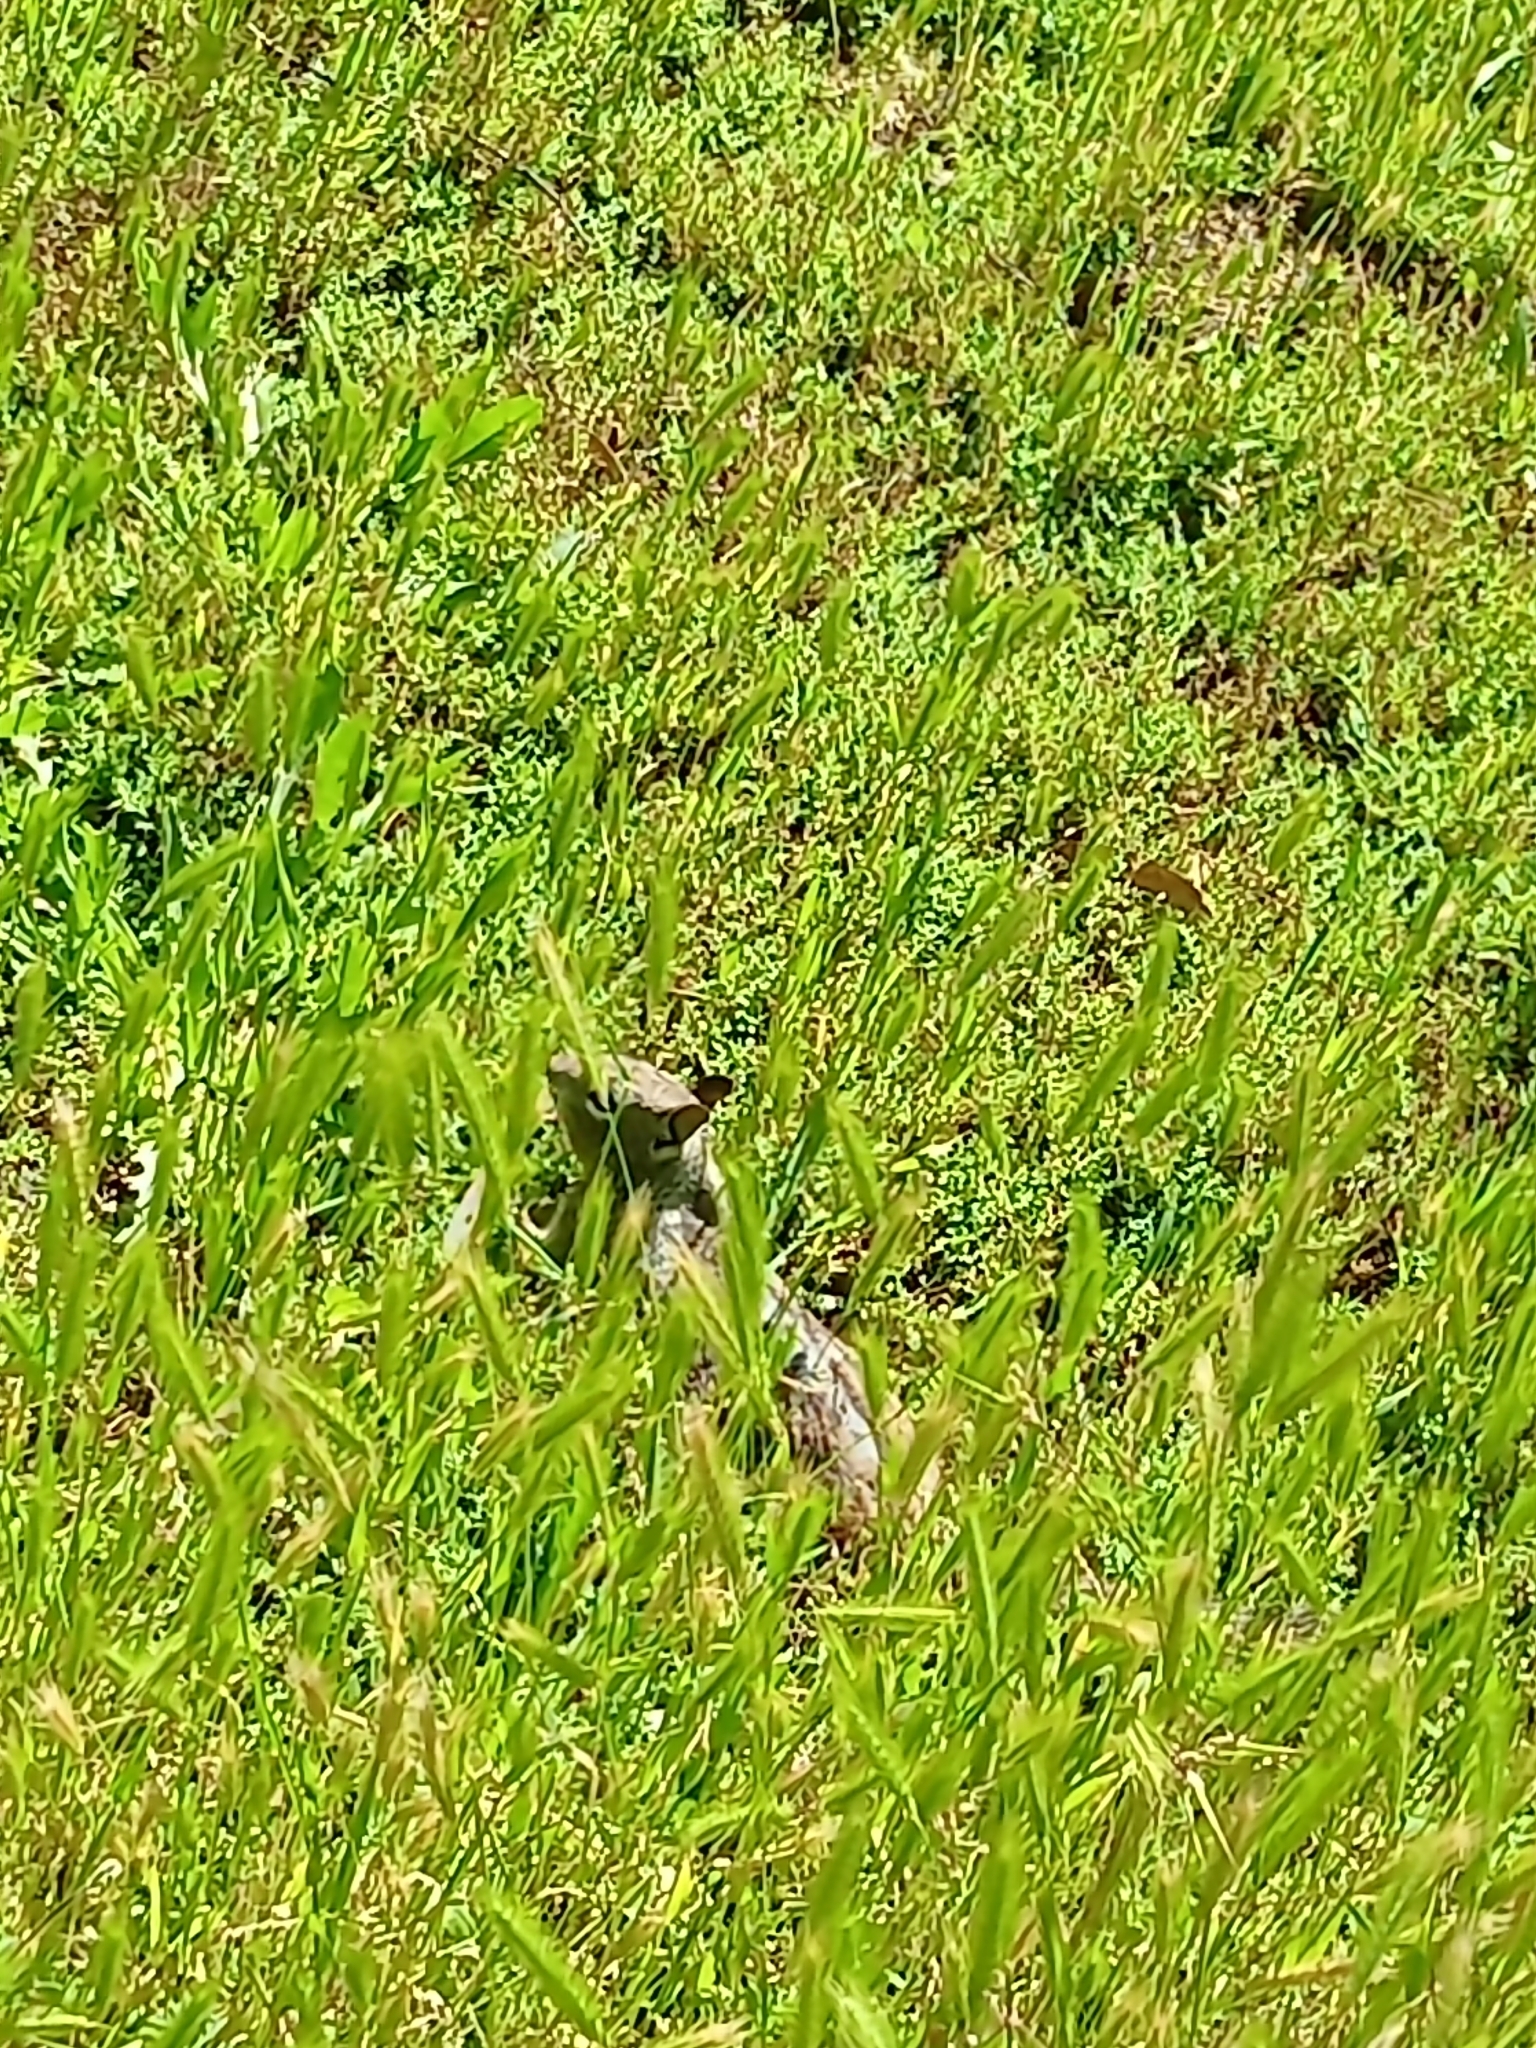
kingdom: Animalia
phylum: Chordata
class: Mammalia
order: Rodentia
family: Sciuridae
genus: Otospermophilus
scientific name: Otospermophilus beecheyi
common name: California ground squirrel
